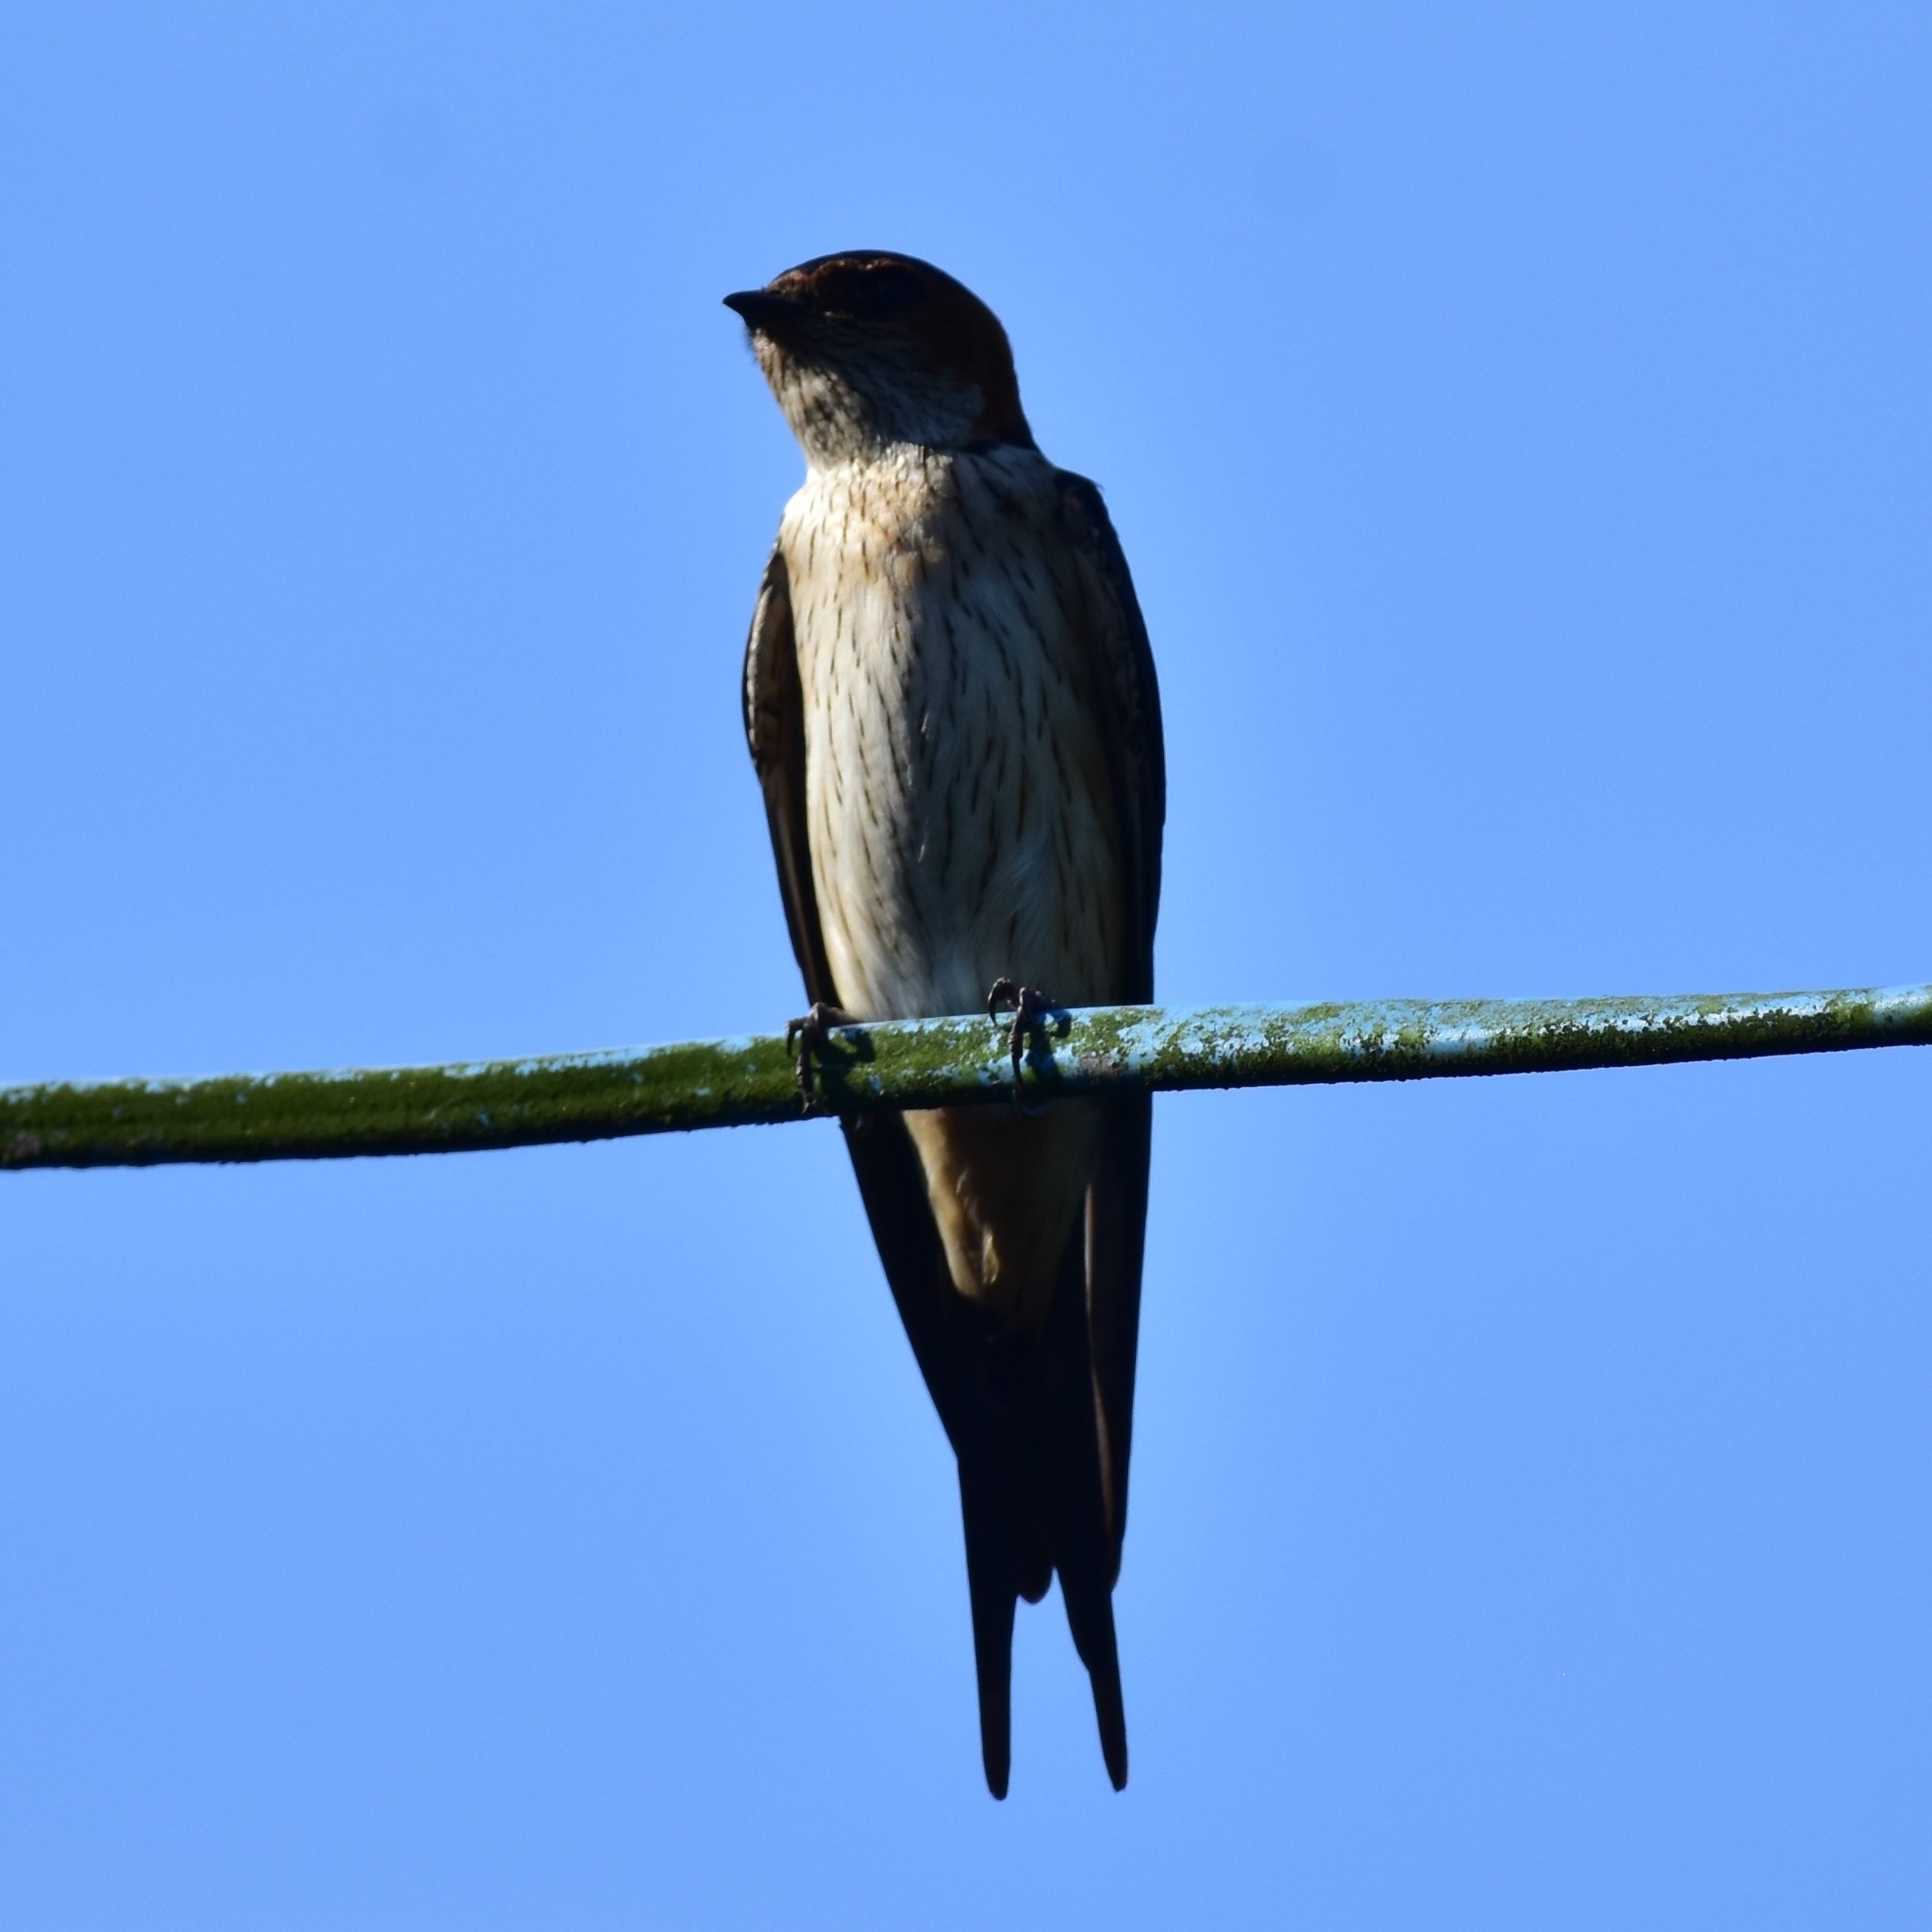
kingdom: Animalia
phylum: Chordata
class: Aves
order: Passeriformes
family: Hirundinidae
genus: Cecropis
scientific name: Cecropis daurica
